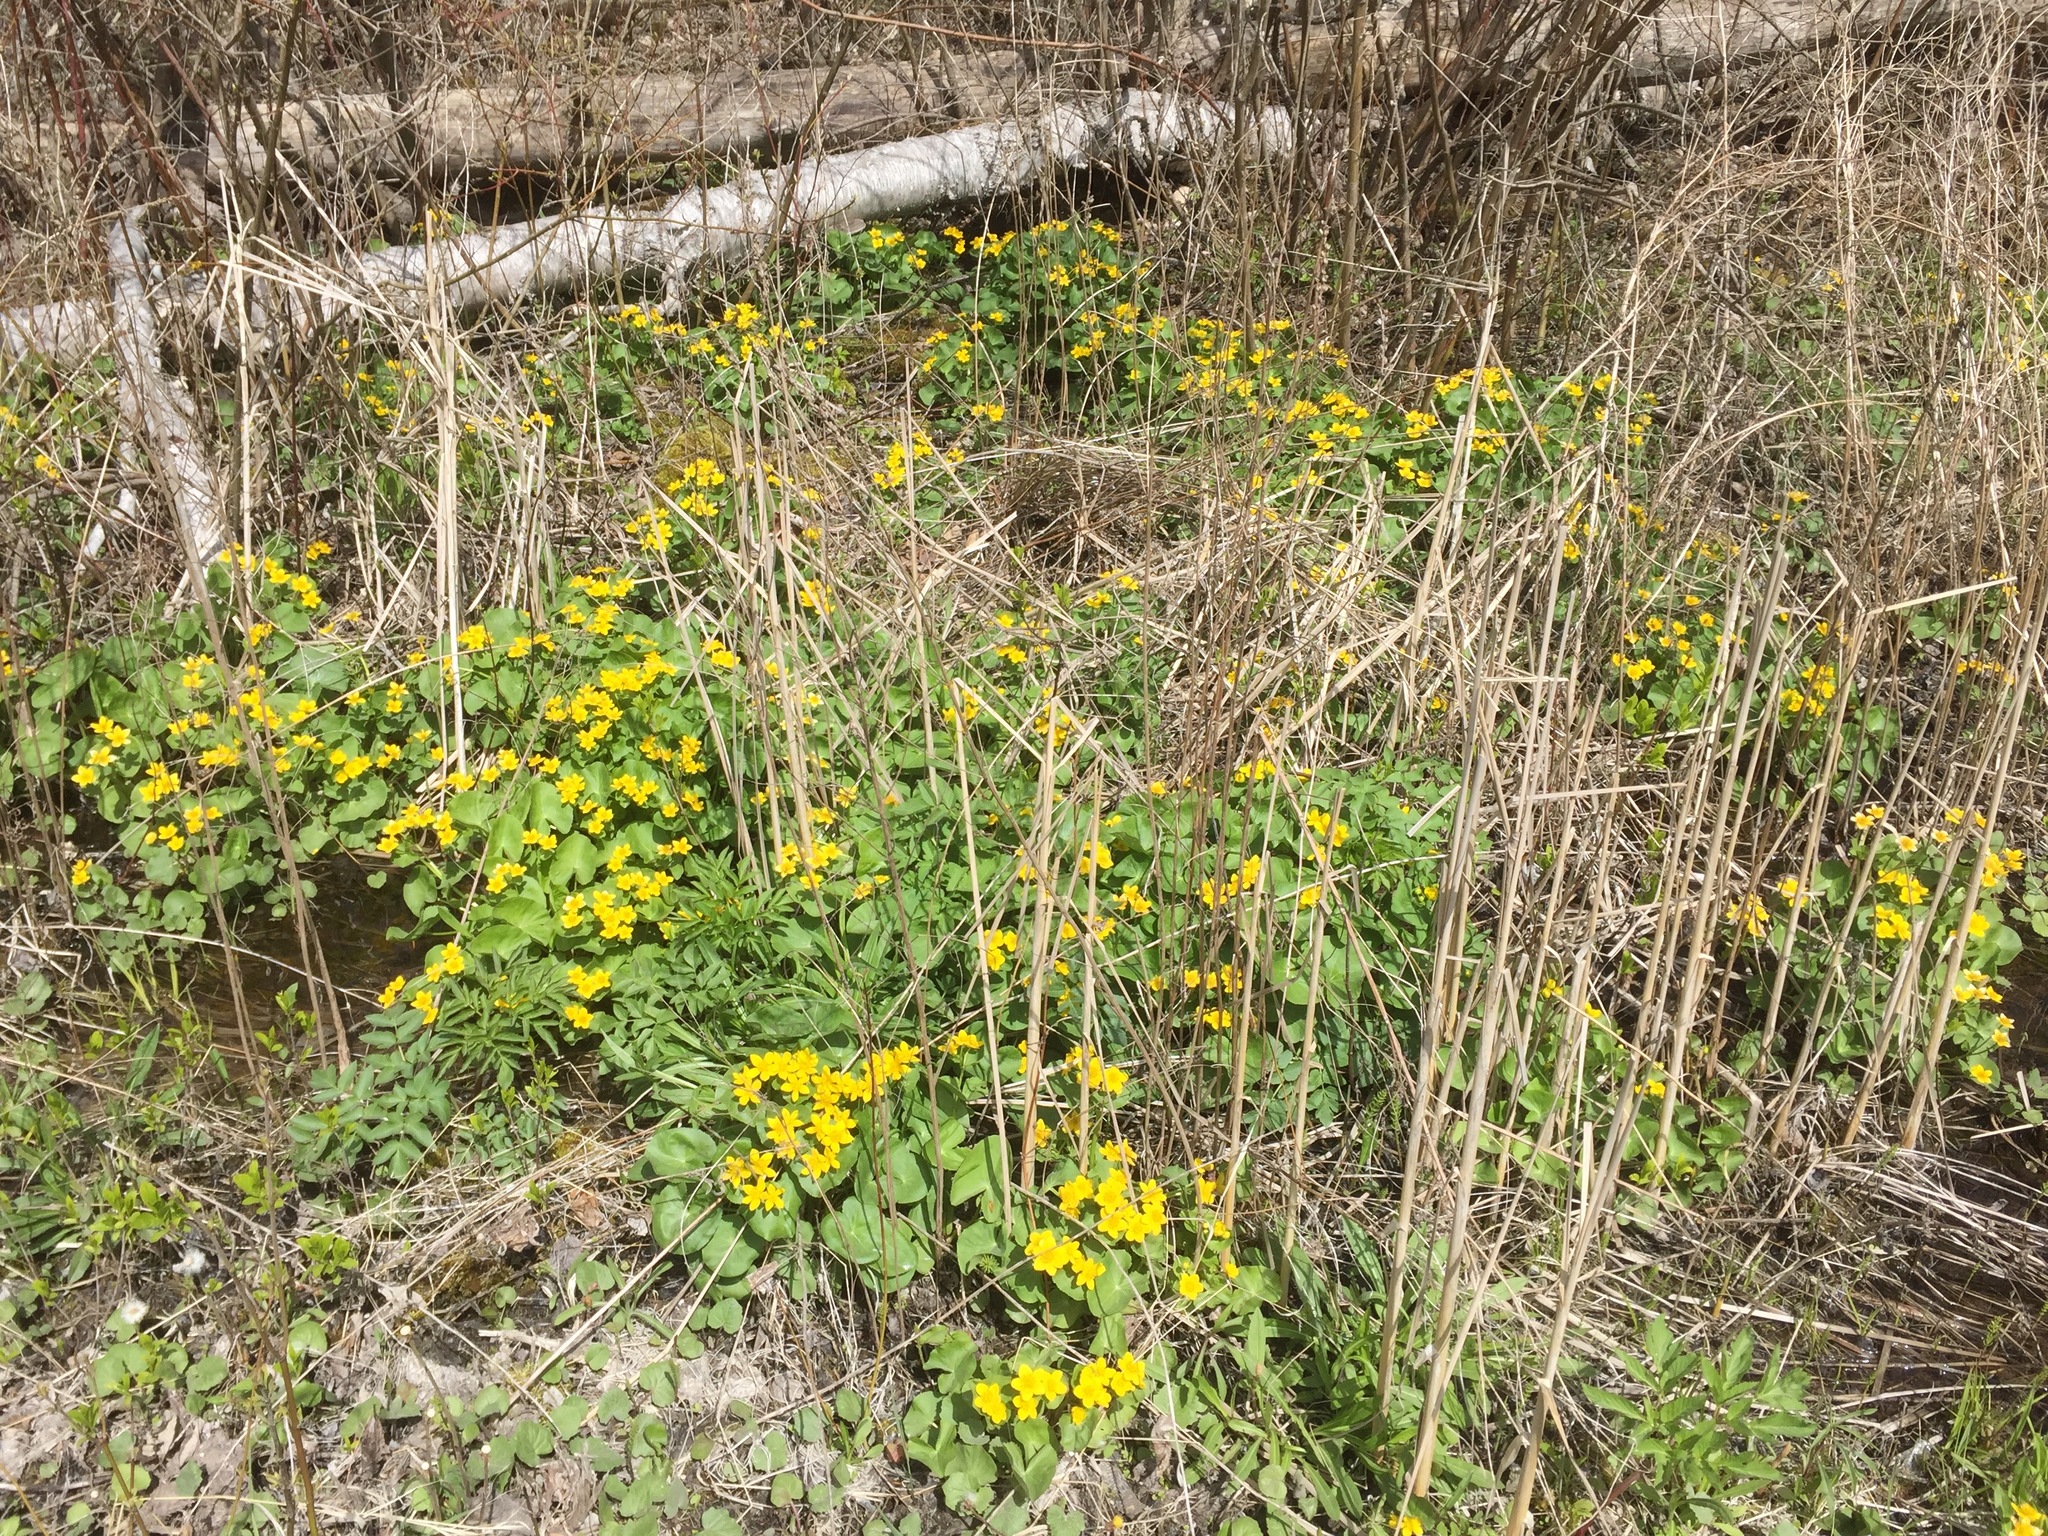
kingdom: Plantae
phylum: Tracheophyta
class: Magnoliopsida
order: Ranunculales
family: Ranunculaceae
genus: Caltha
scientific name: Caltha palustris
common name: Marsh marigold
